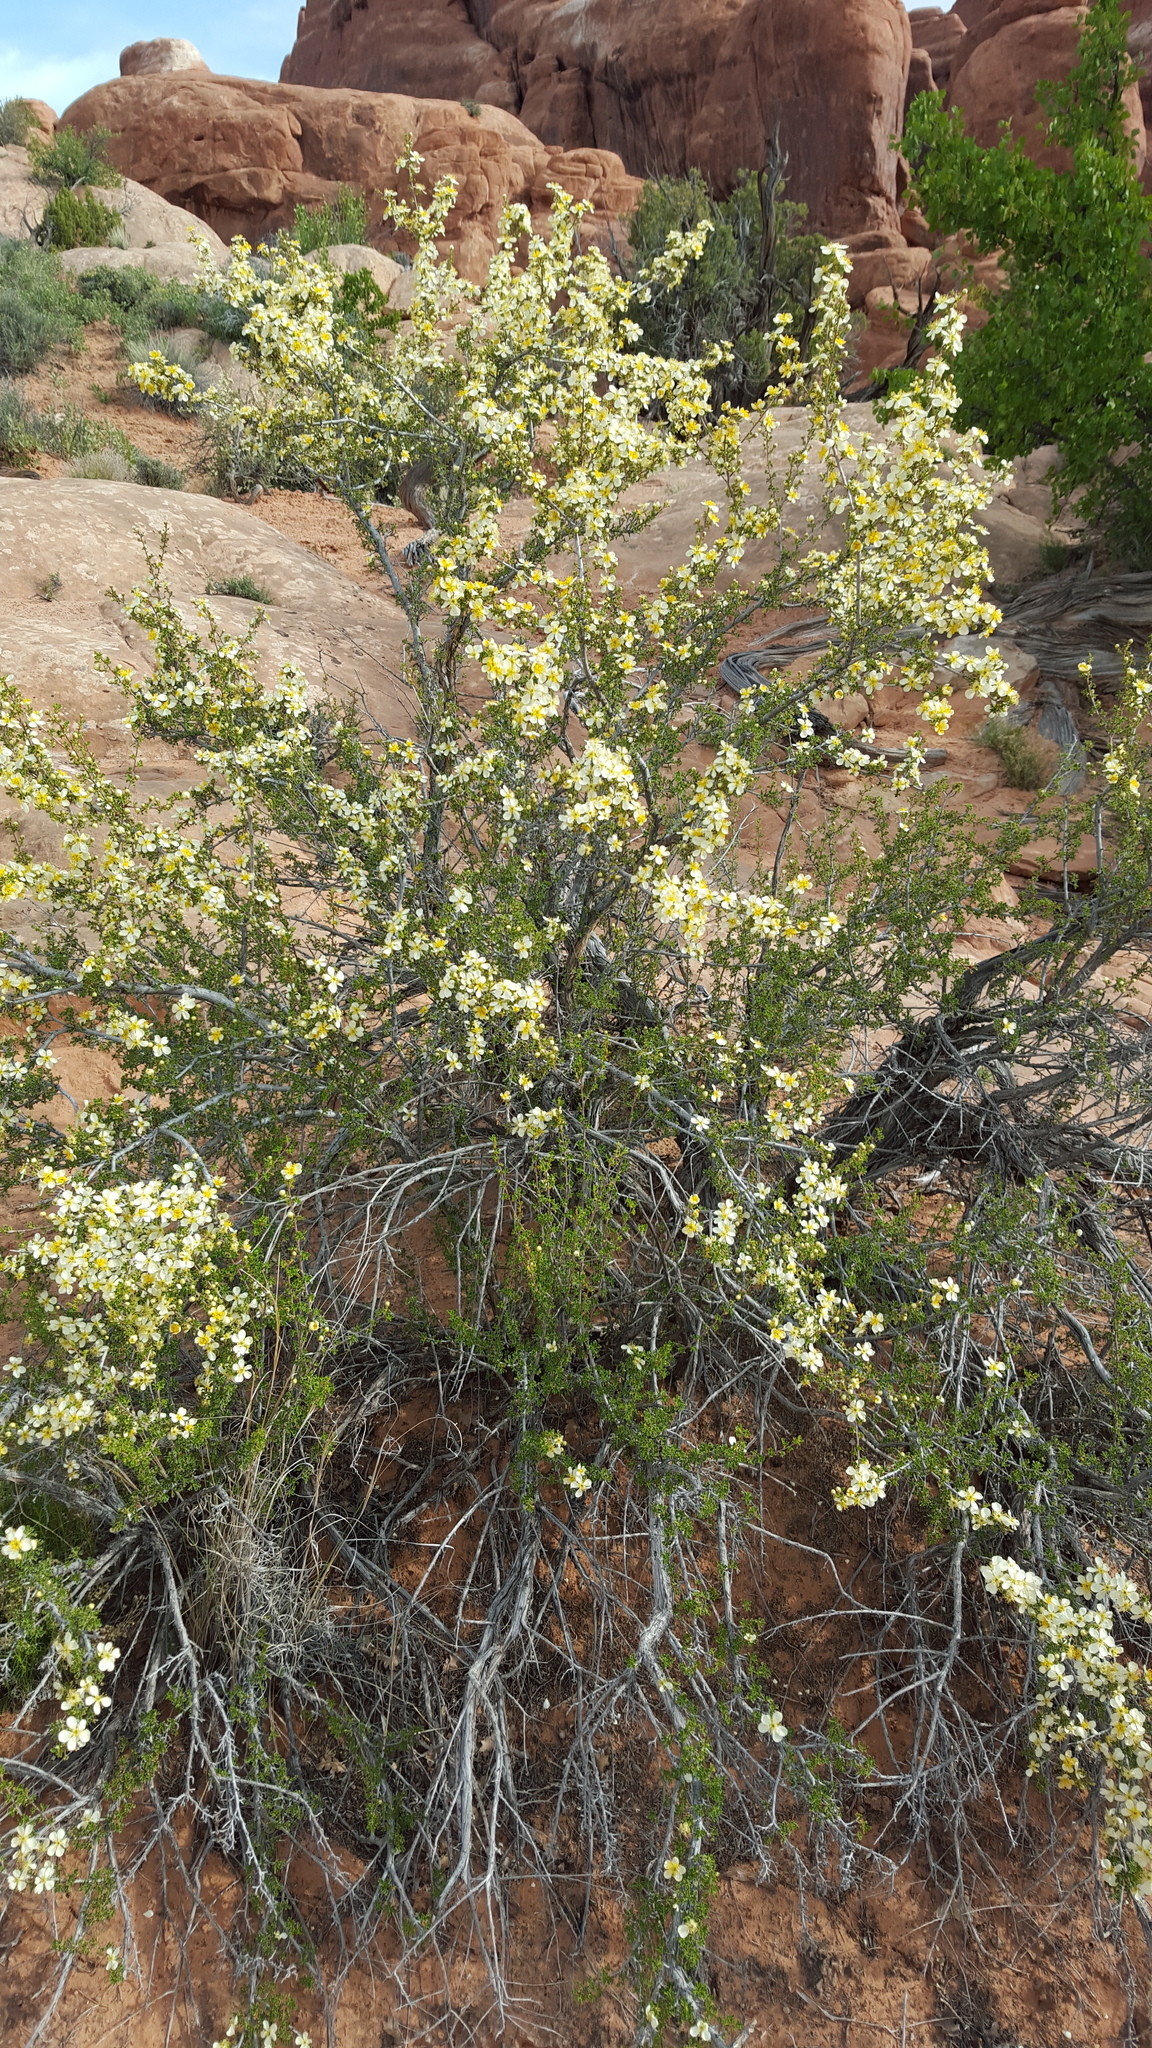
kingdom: Plantae
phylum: Tracheophyta
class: Magnoliopsida
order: Rosales
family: Rosaceae
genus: Purshia
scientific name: Purshia stansburiana
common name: Stansbury's cliffrose
